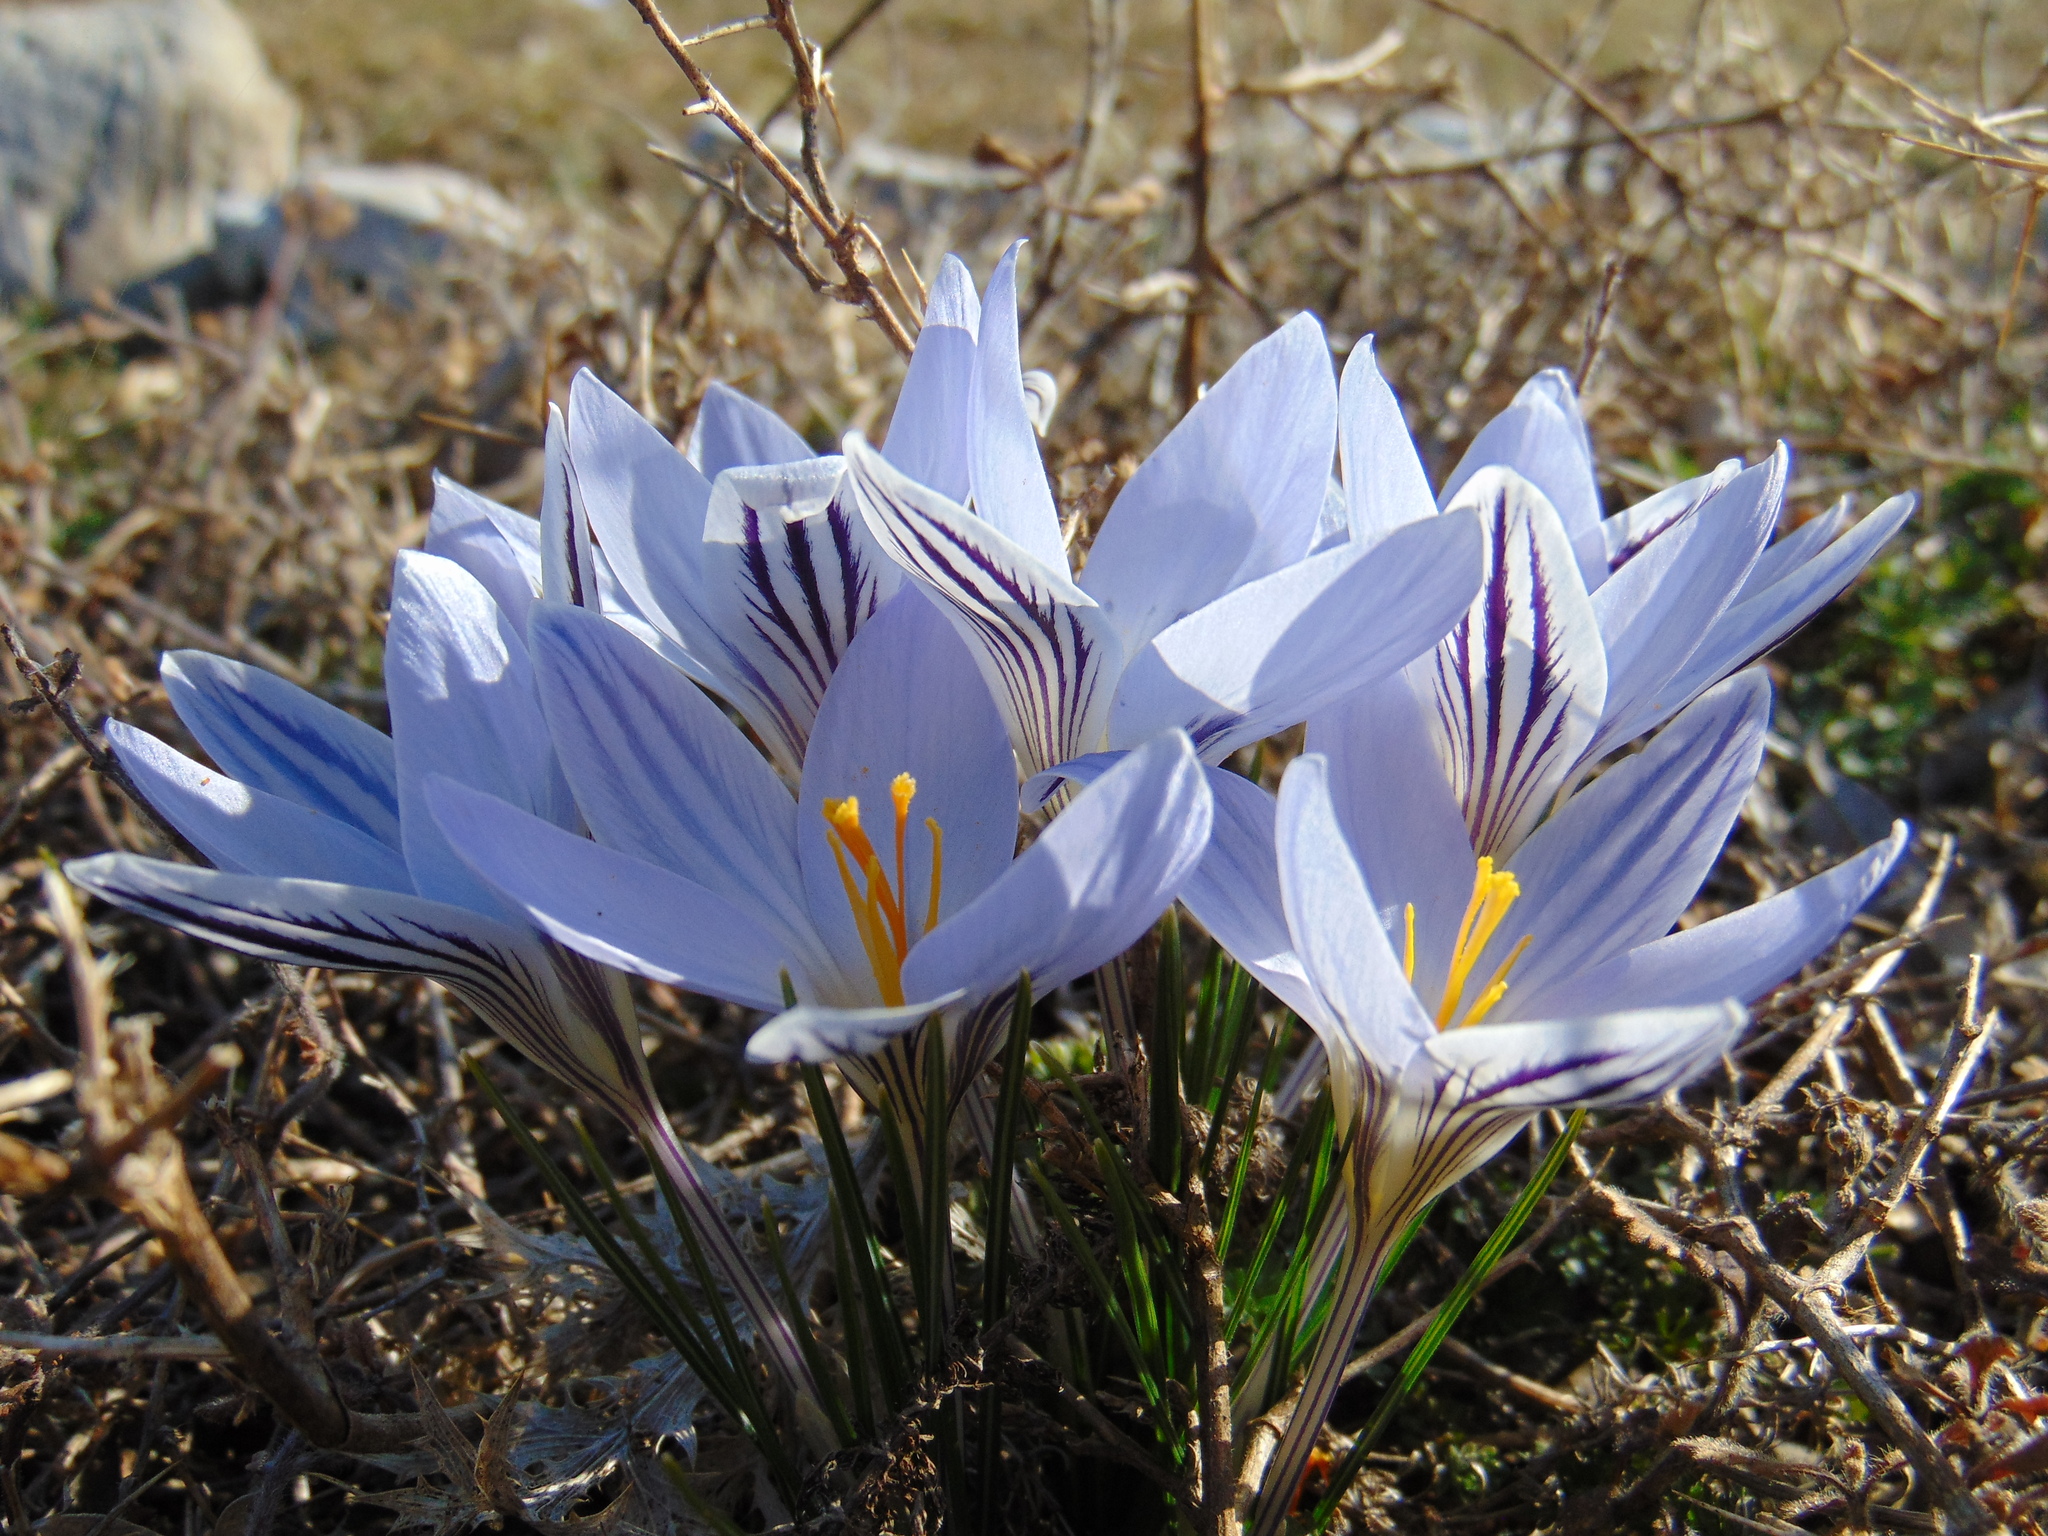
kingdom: Plantae
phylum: Tracheophyta
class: Liliopsida
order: Asparagales
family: Iridaceae
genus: Crocus
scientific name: Crocus variegatus
